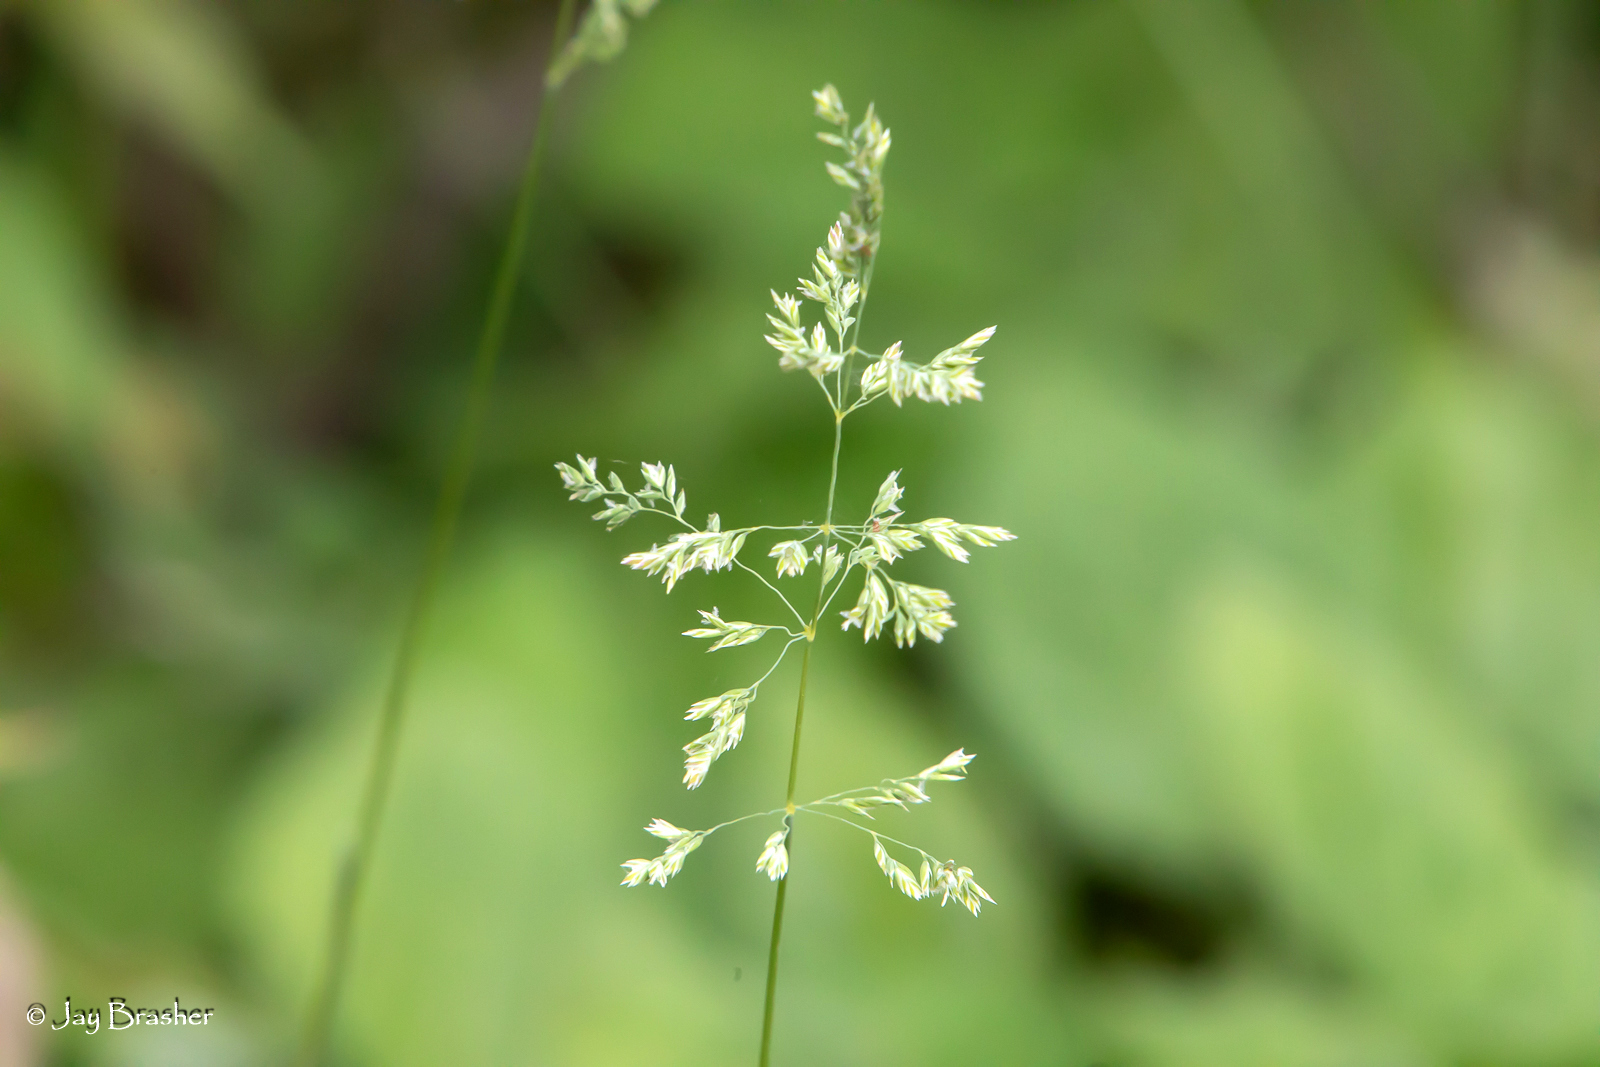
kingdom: Plantae
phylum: Tracheophyta
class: Liliopsida
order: Poales
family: Poaceae
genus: Poa
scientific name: Poa pratensis
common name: Kentucky bluegrass
